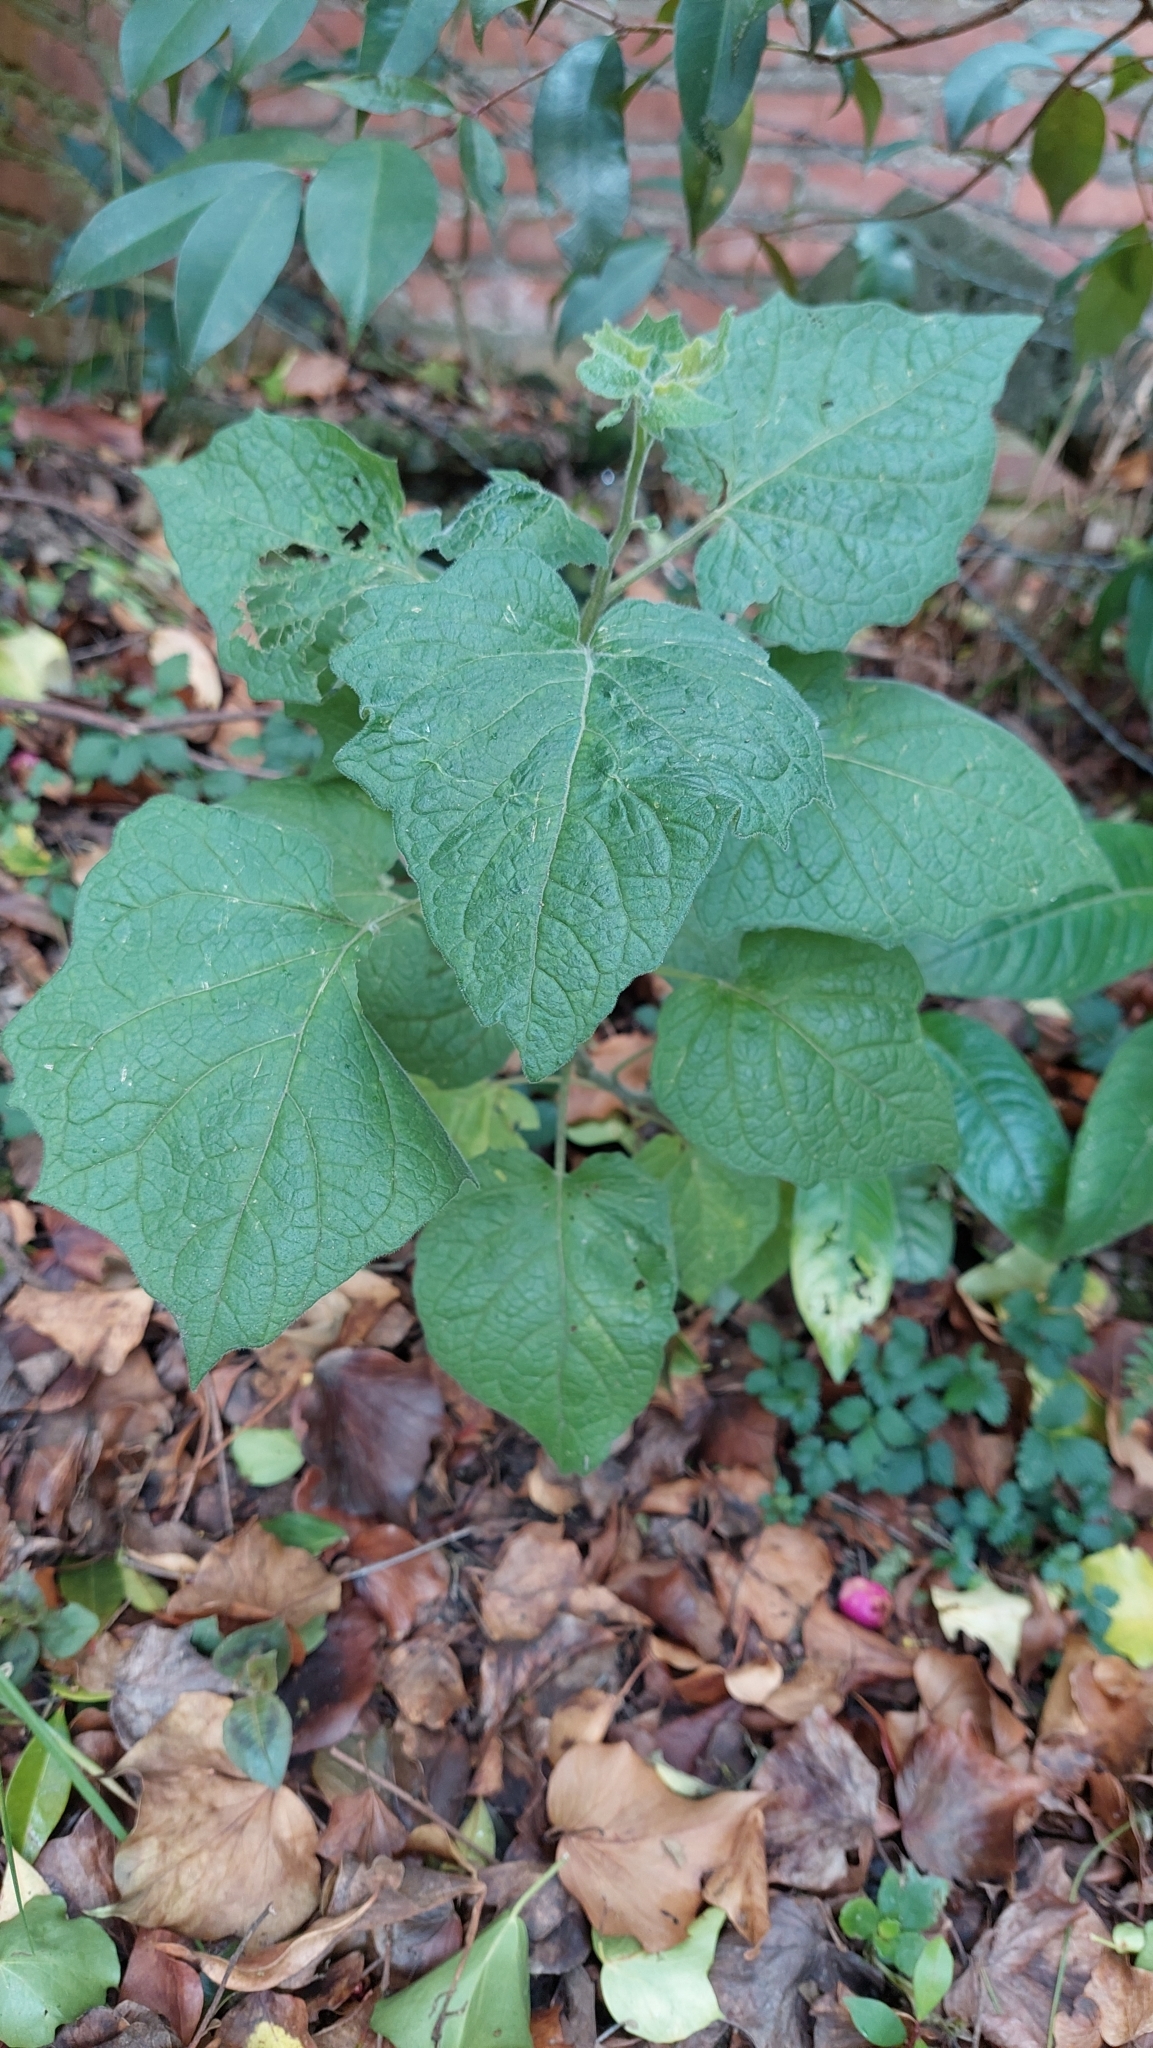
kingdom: Plantae
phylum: Tracheophyta
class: Magnoliopsida
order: Solanales
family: Solanaceae
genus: Physalis
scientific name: Physalis peruviana
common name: Cape-gooseberry
